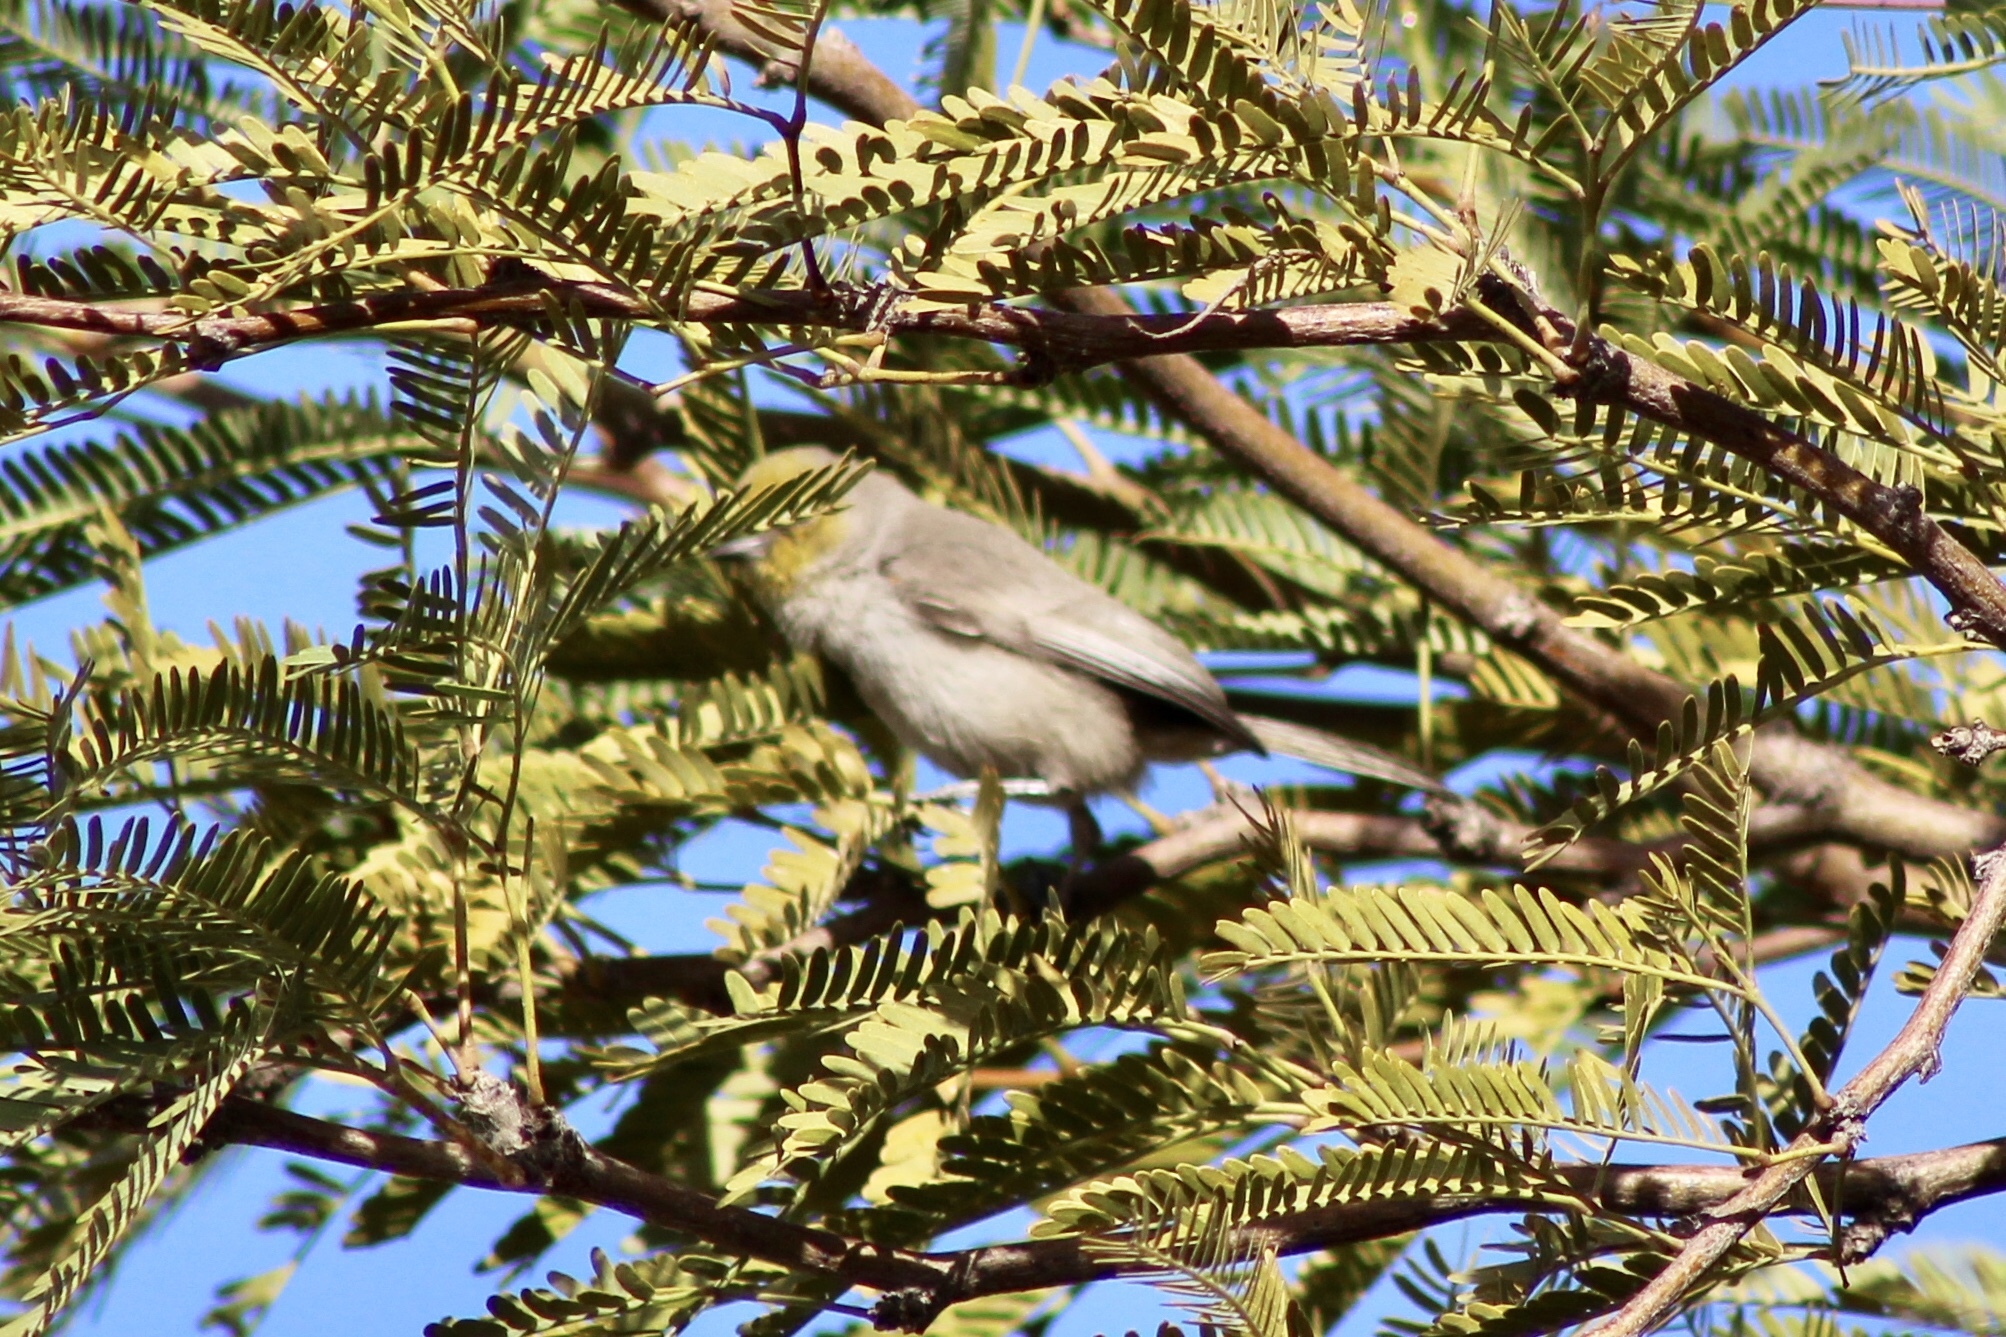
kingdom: Animalia
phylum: Chordata
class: Aves
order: Passeriformes
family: Remizidae
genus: Auriparus
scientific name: Auriparus flaviceps
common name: Verdin
